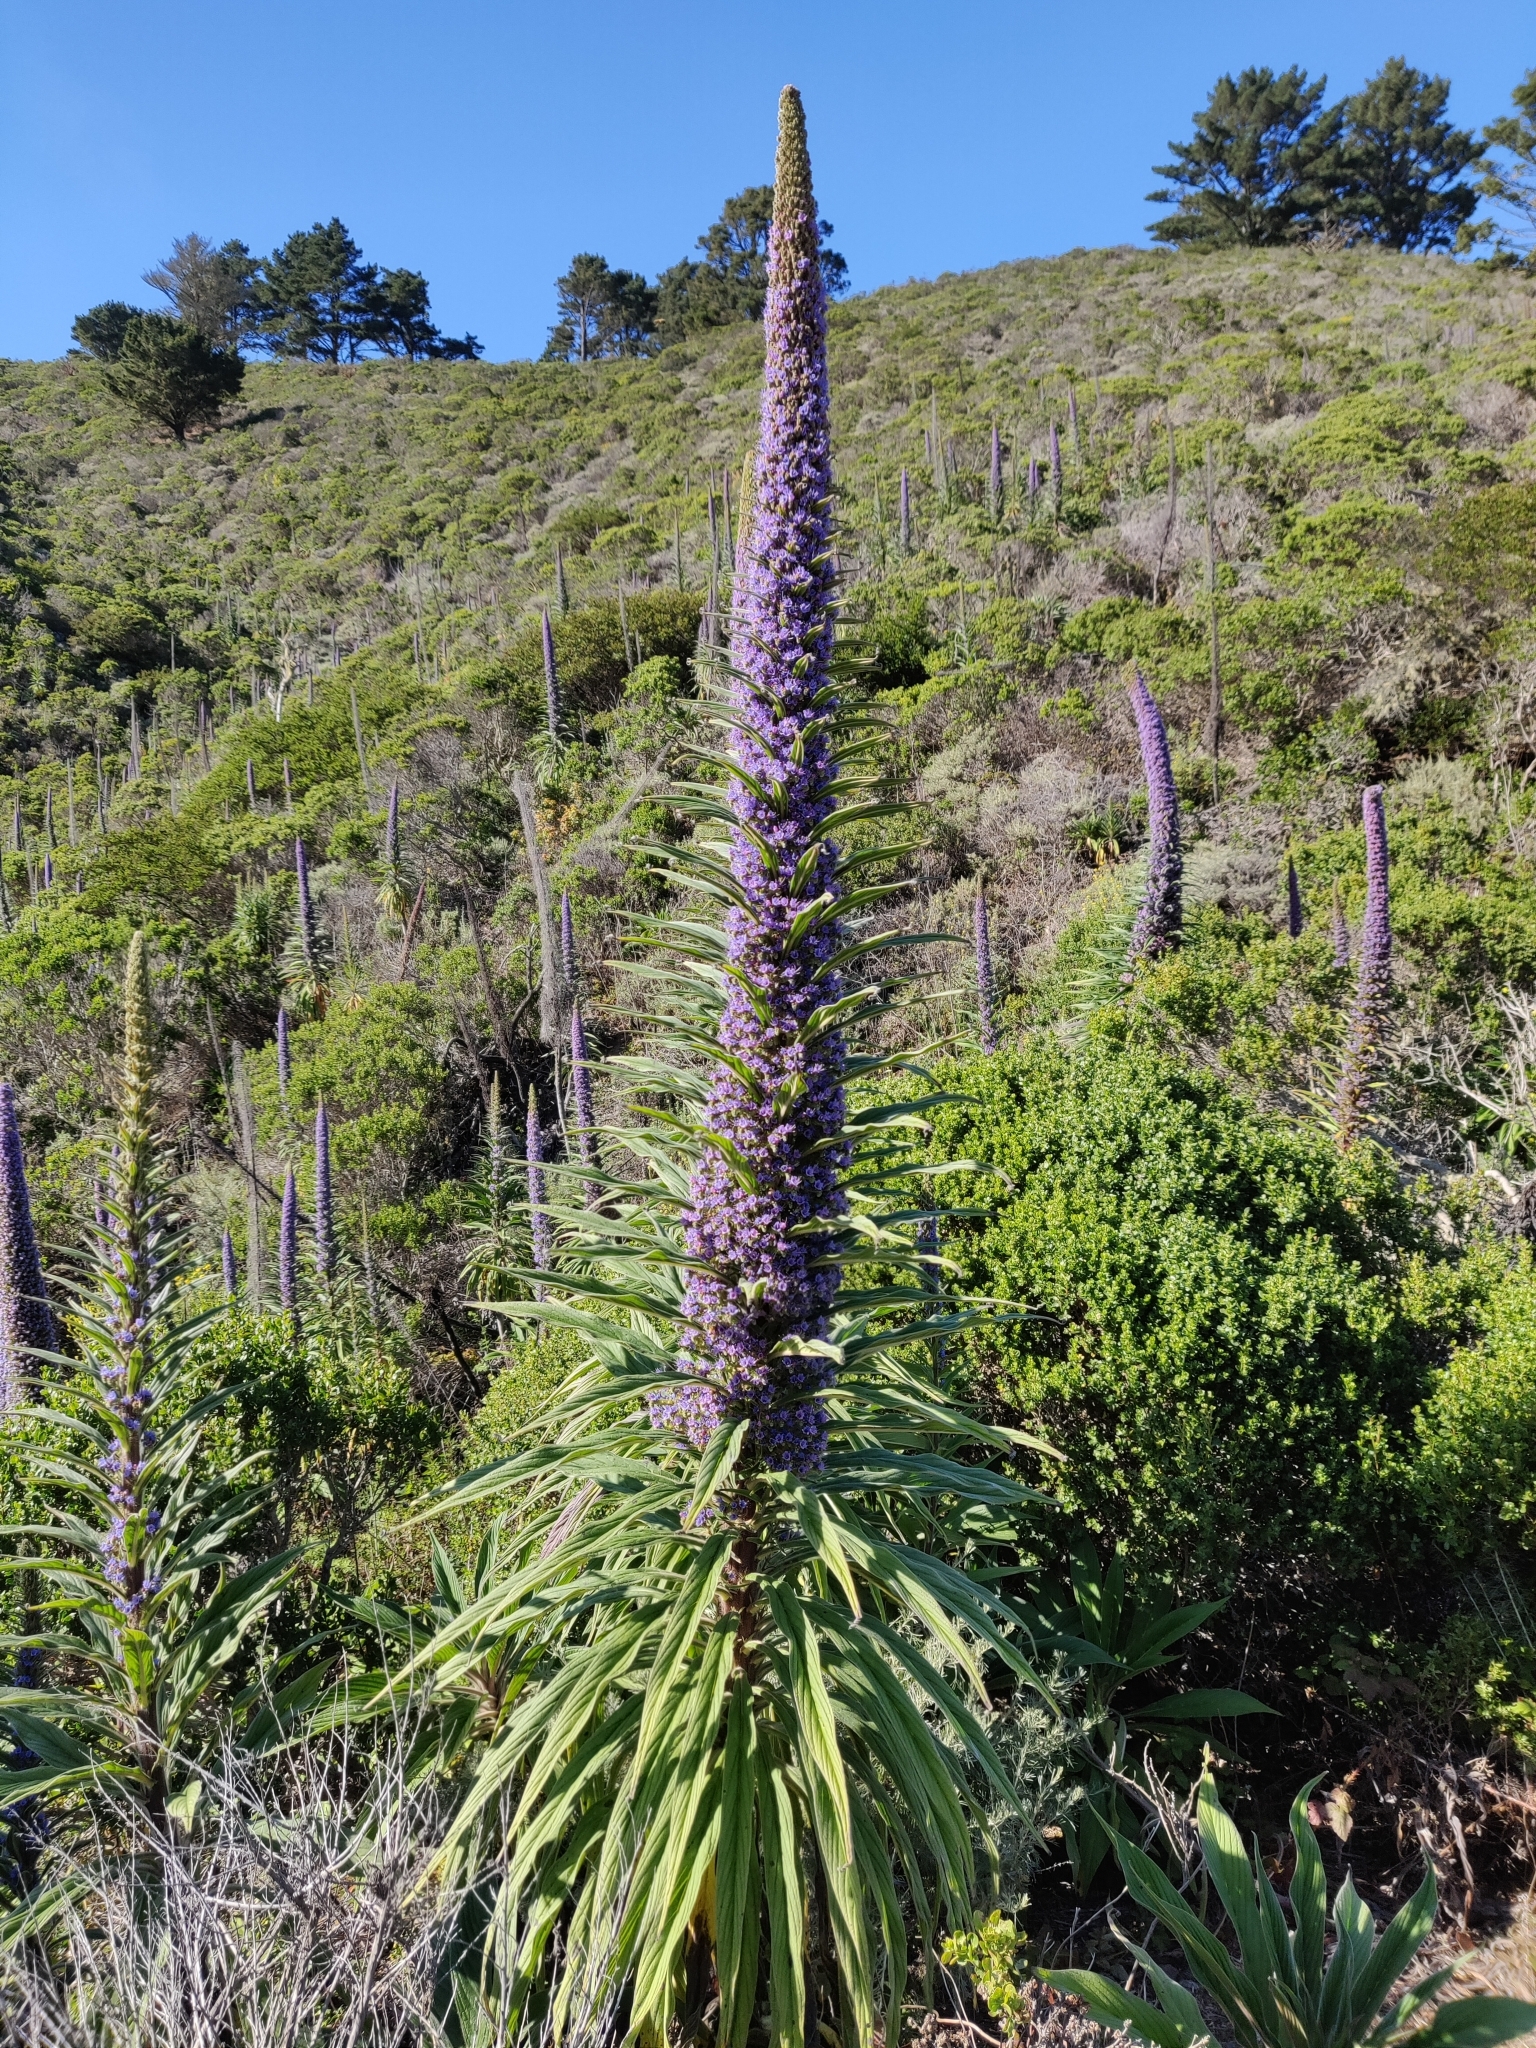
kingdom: Plantae
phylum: Tracheophyta
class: Magnoliopsida
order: Boraginales
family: Boraginaceae
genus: Echium
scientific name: Echium pininana
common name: Giant viper's-bugloss
